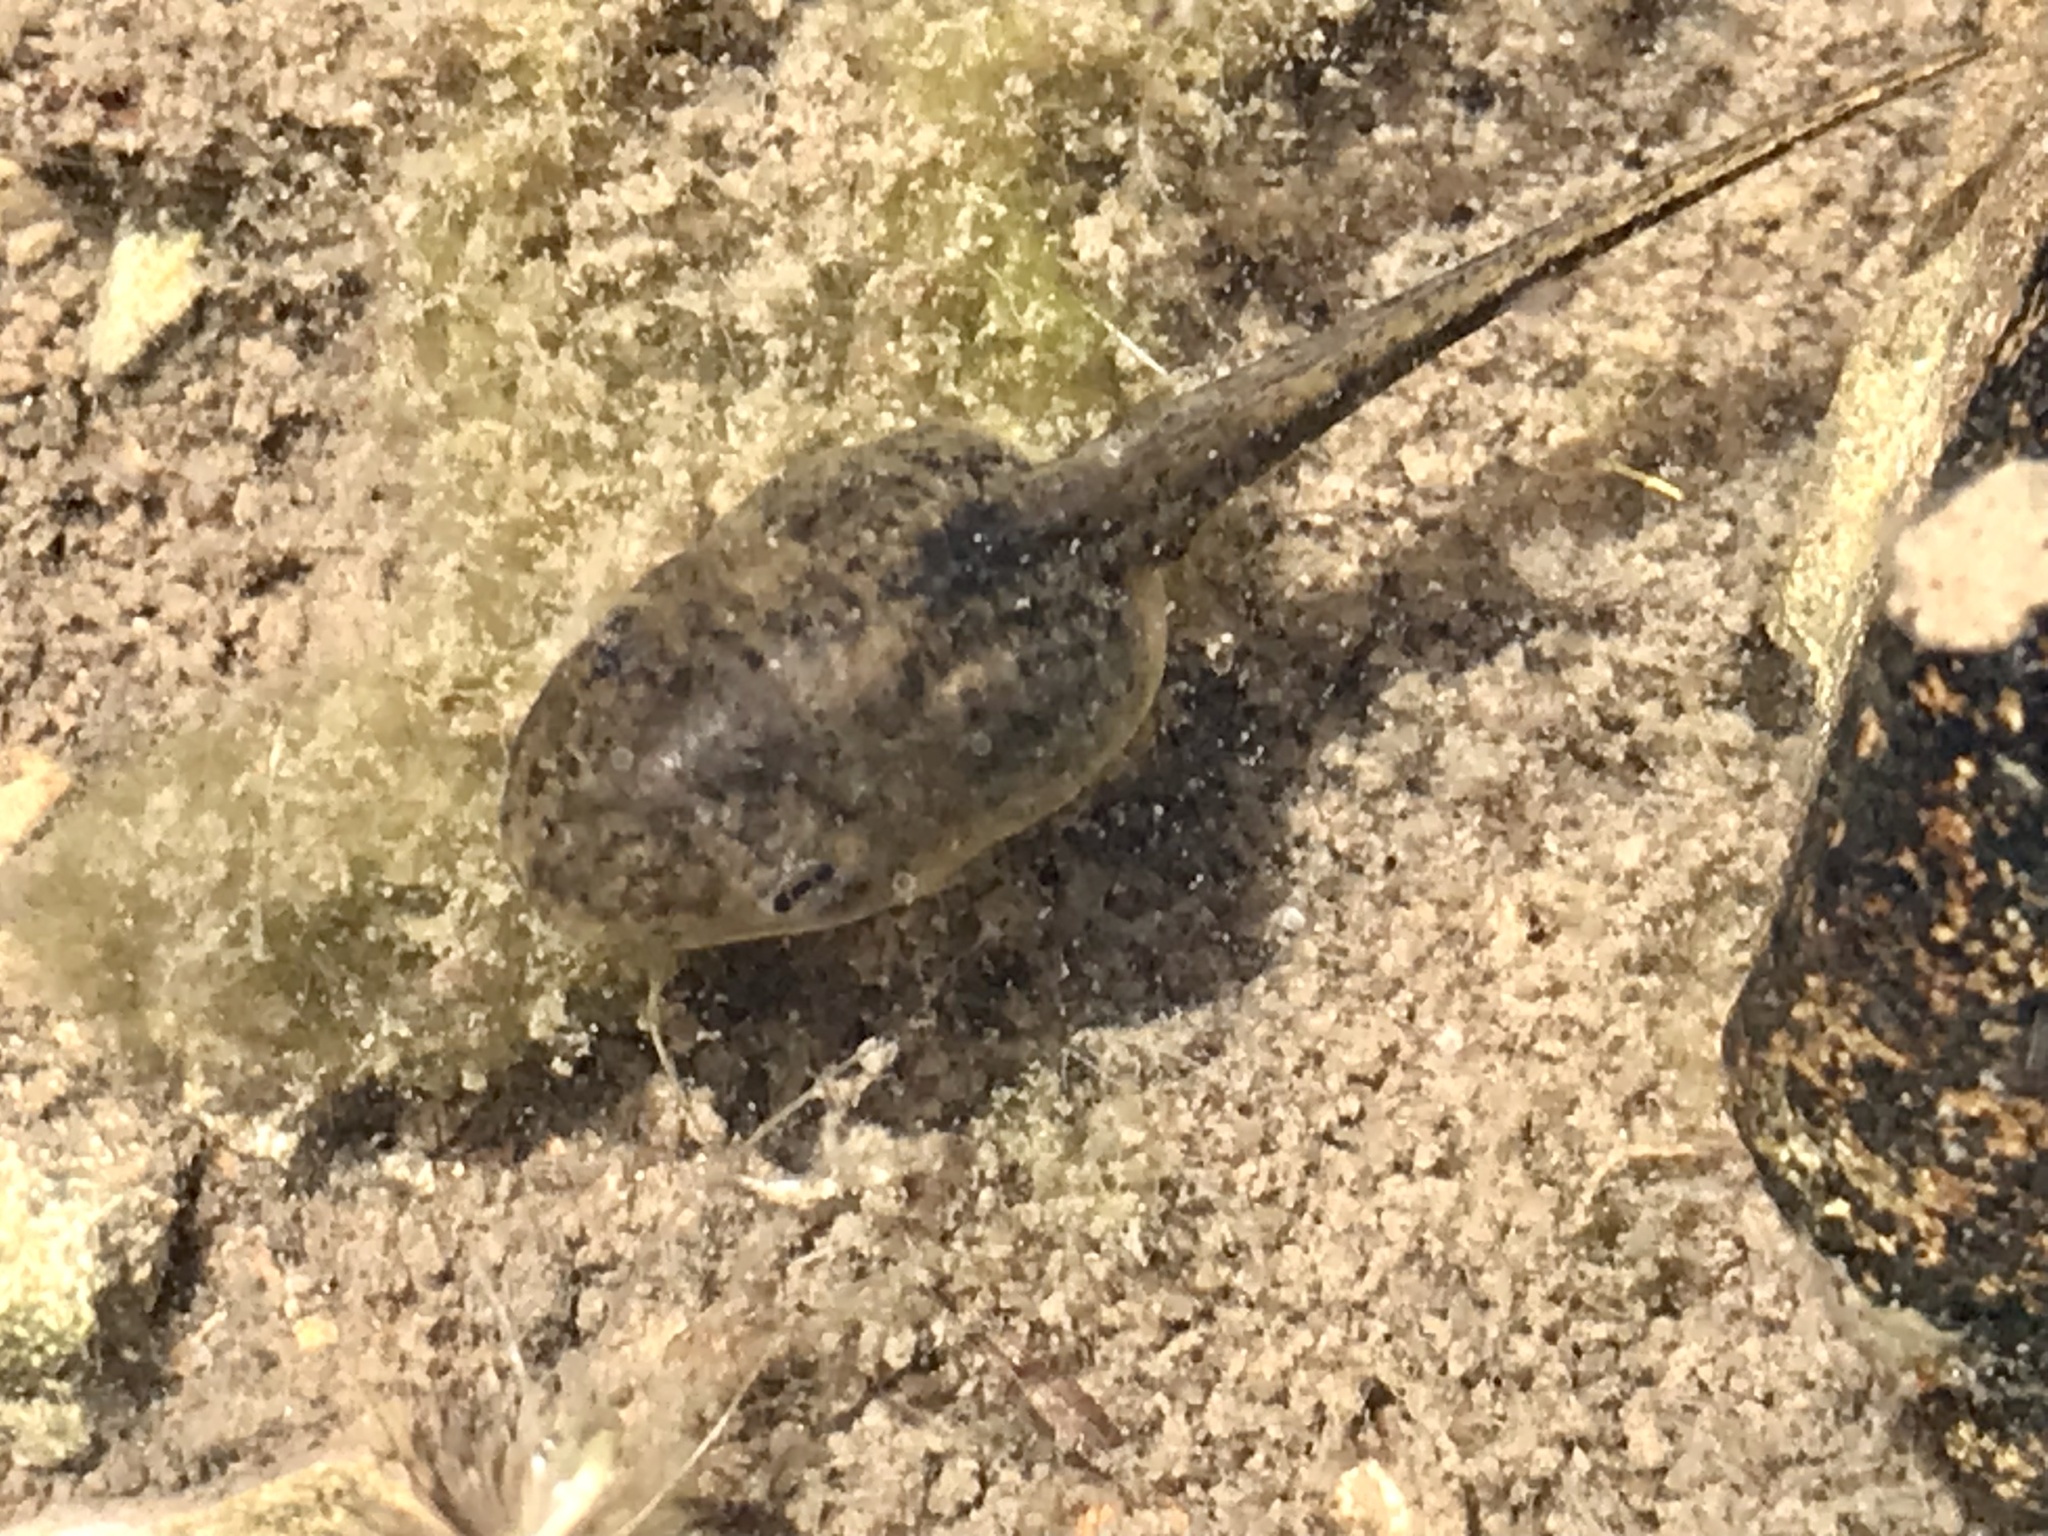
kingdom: Animalia
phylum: Chordata
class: Amphibia
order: Anura
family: Hylidae
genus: Pseudacris
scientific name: Pseudacris regilla
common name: Pacific chorus frog
